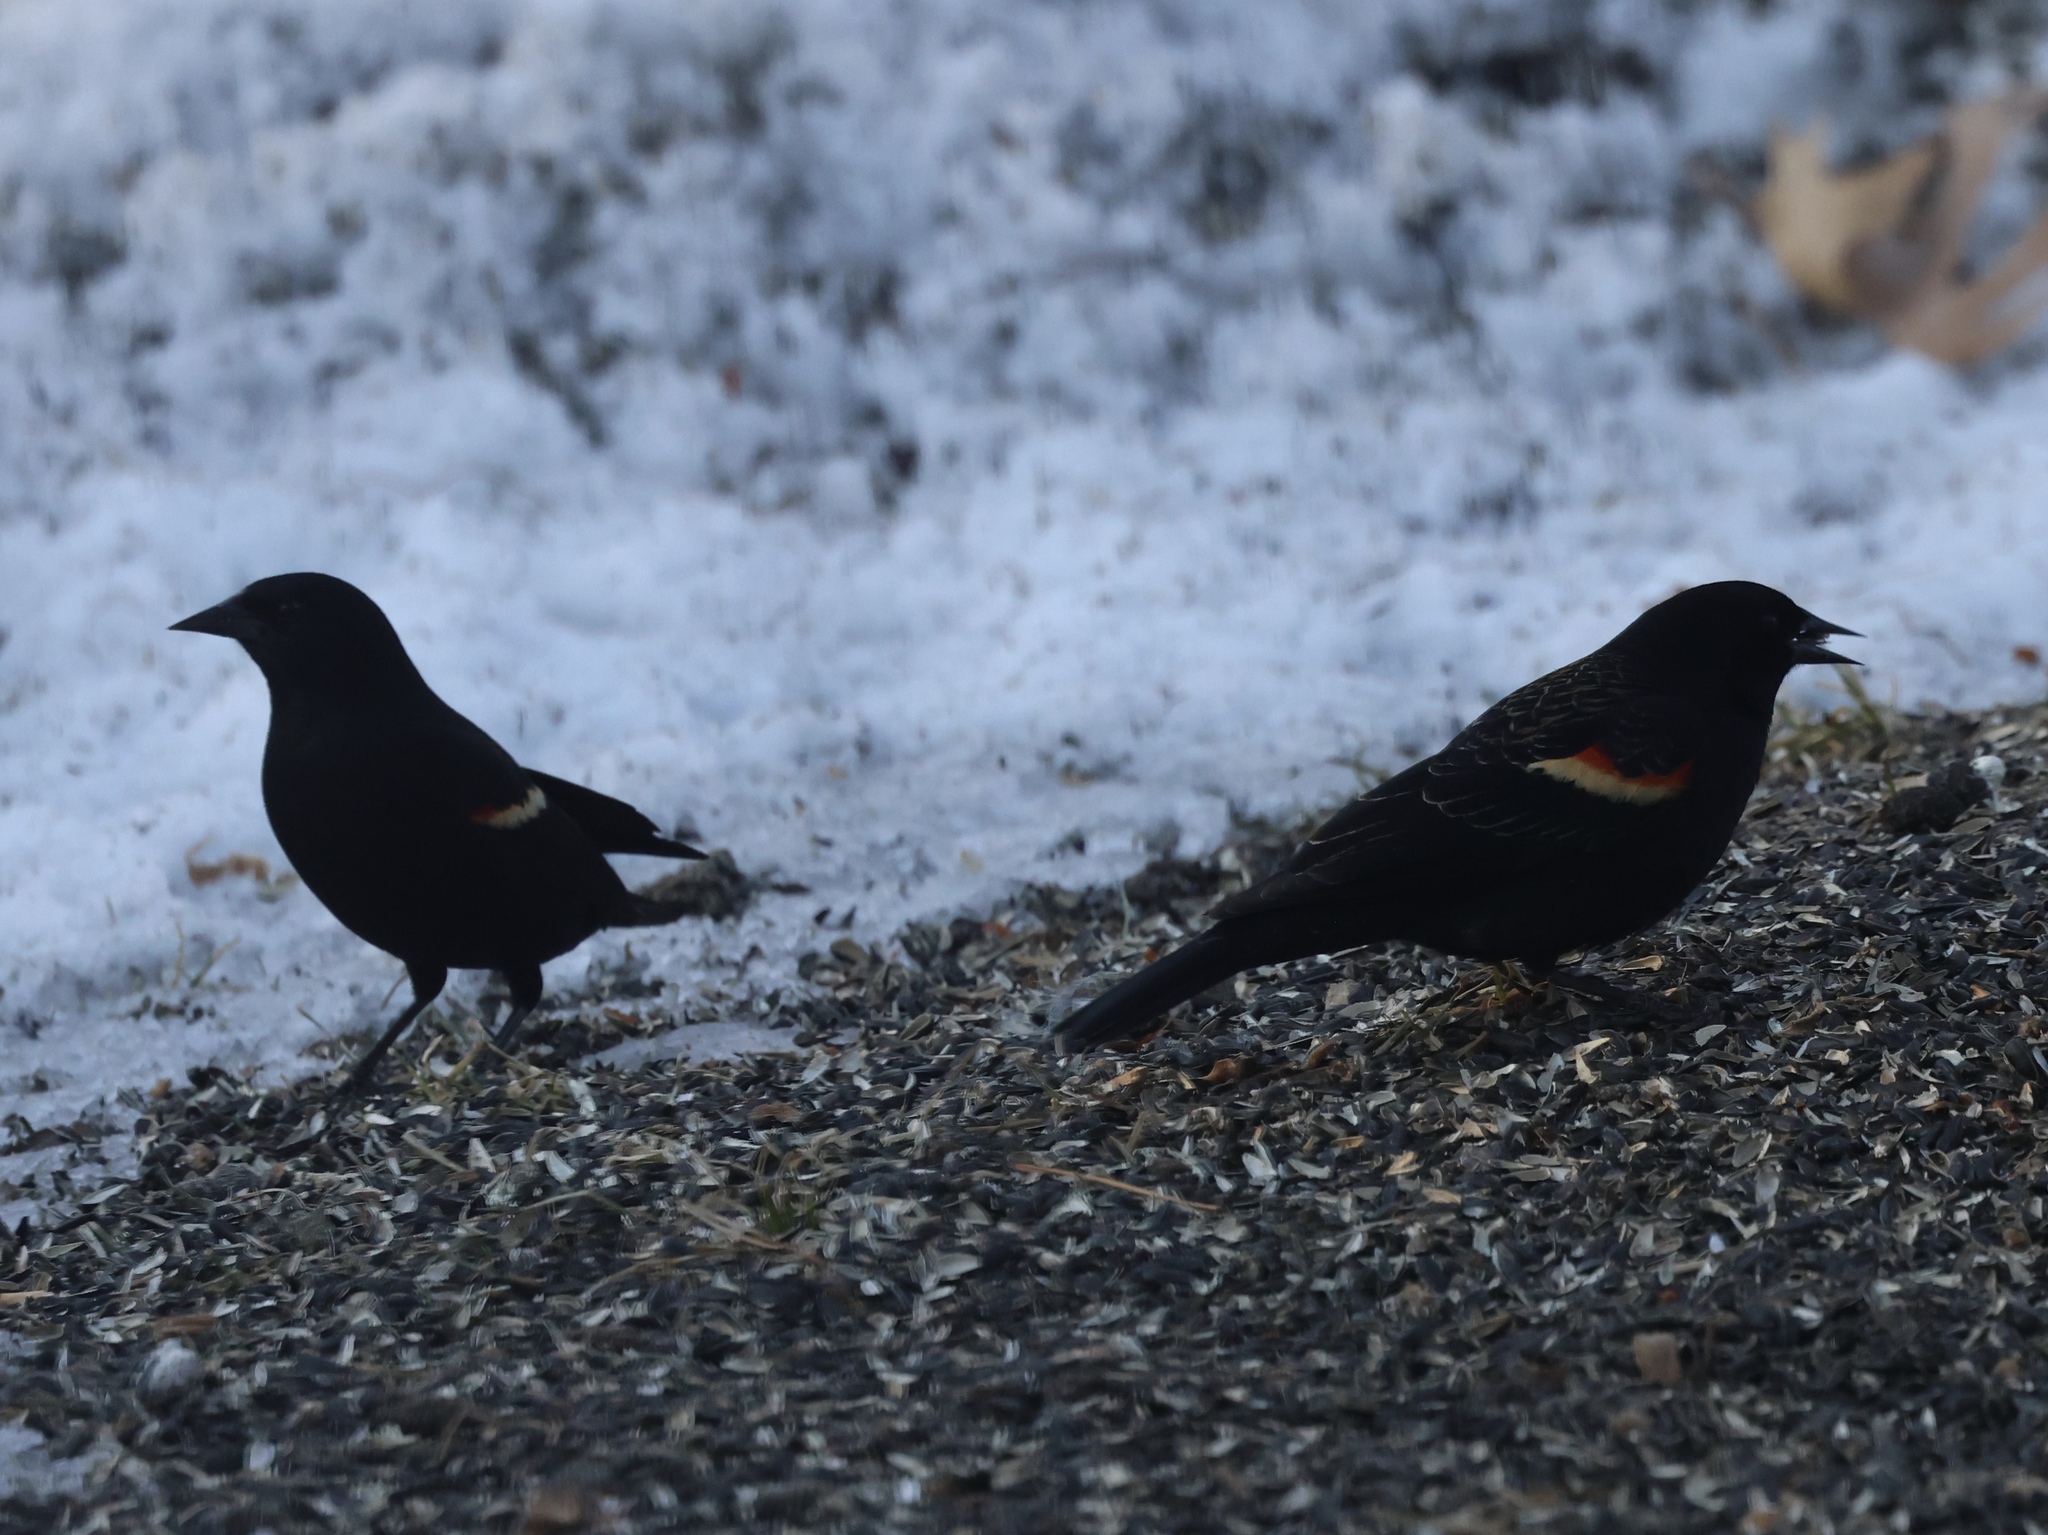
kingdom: Animalia
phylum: Chordata
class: Aves
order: Passeriformes
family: Icteridae
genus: Agelaius
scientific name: Agelaius phoeniceus
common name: Red-winged blackbird
